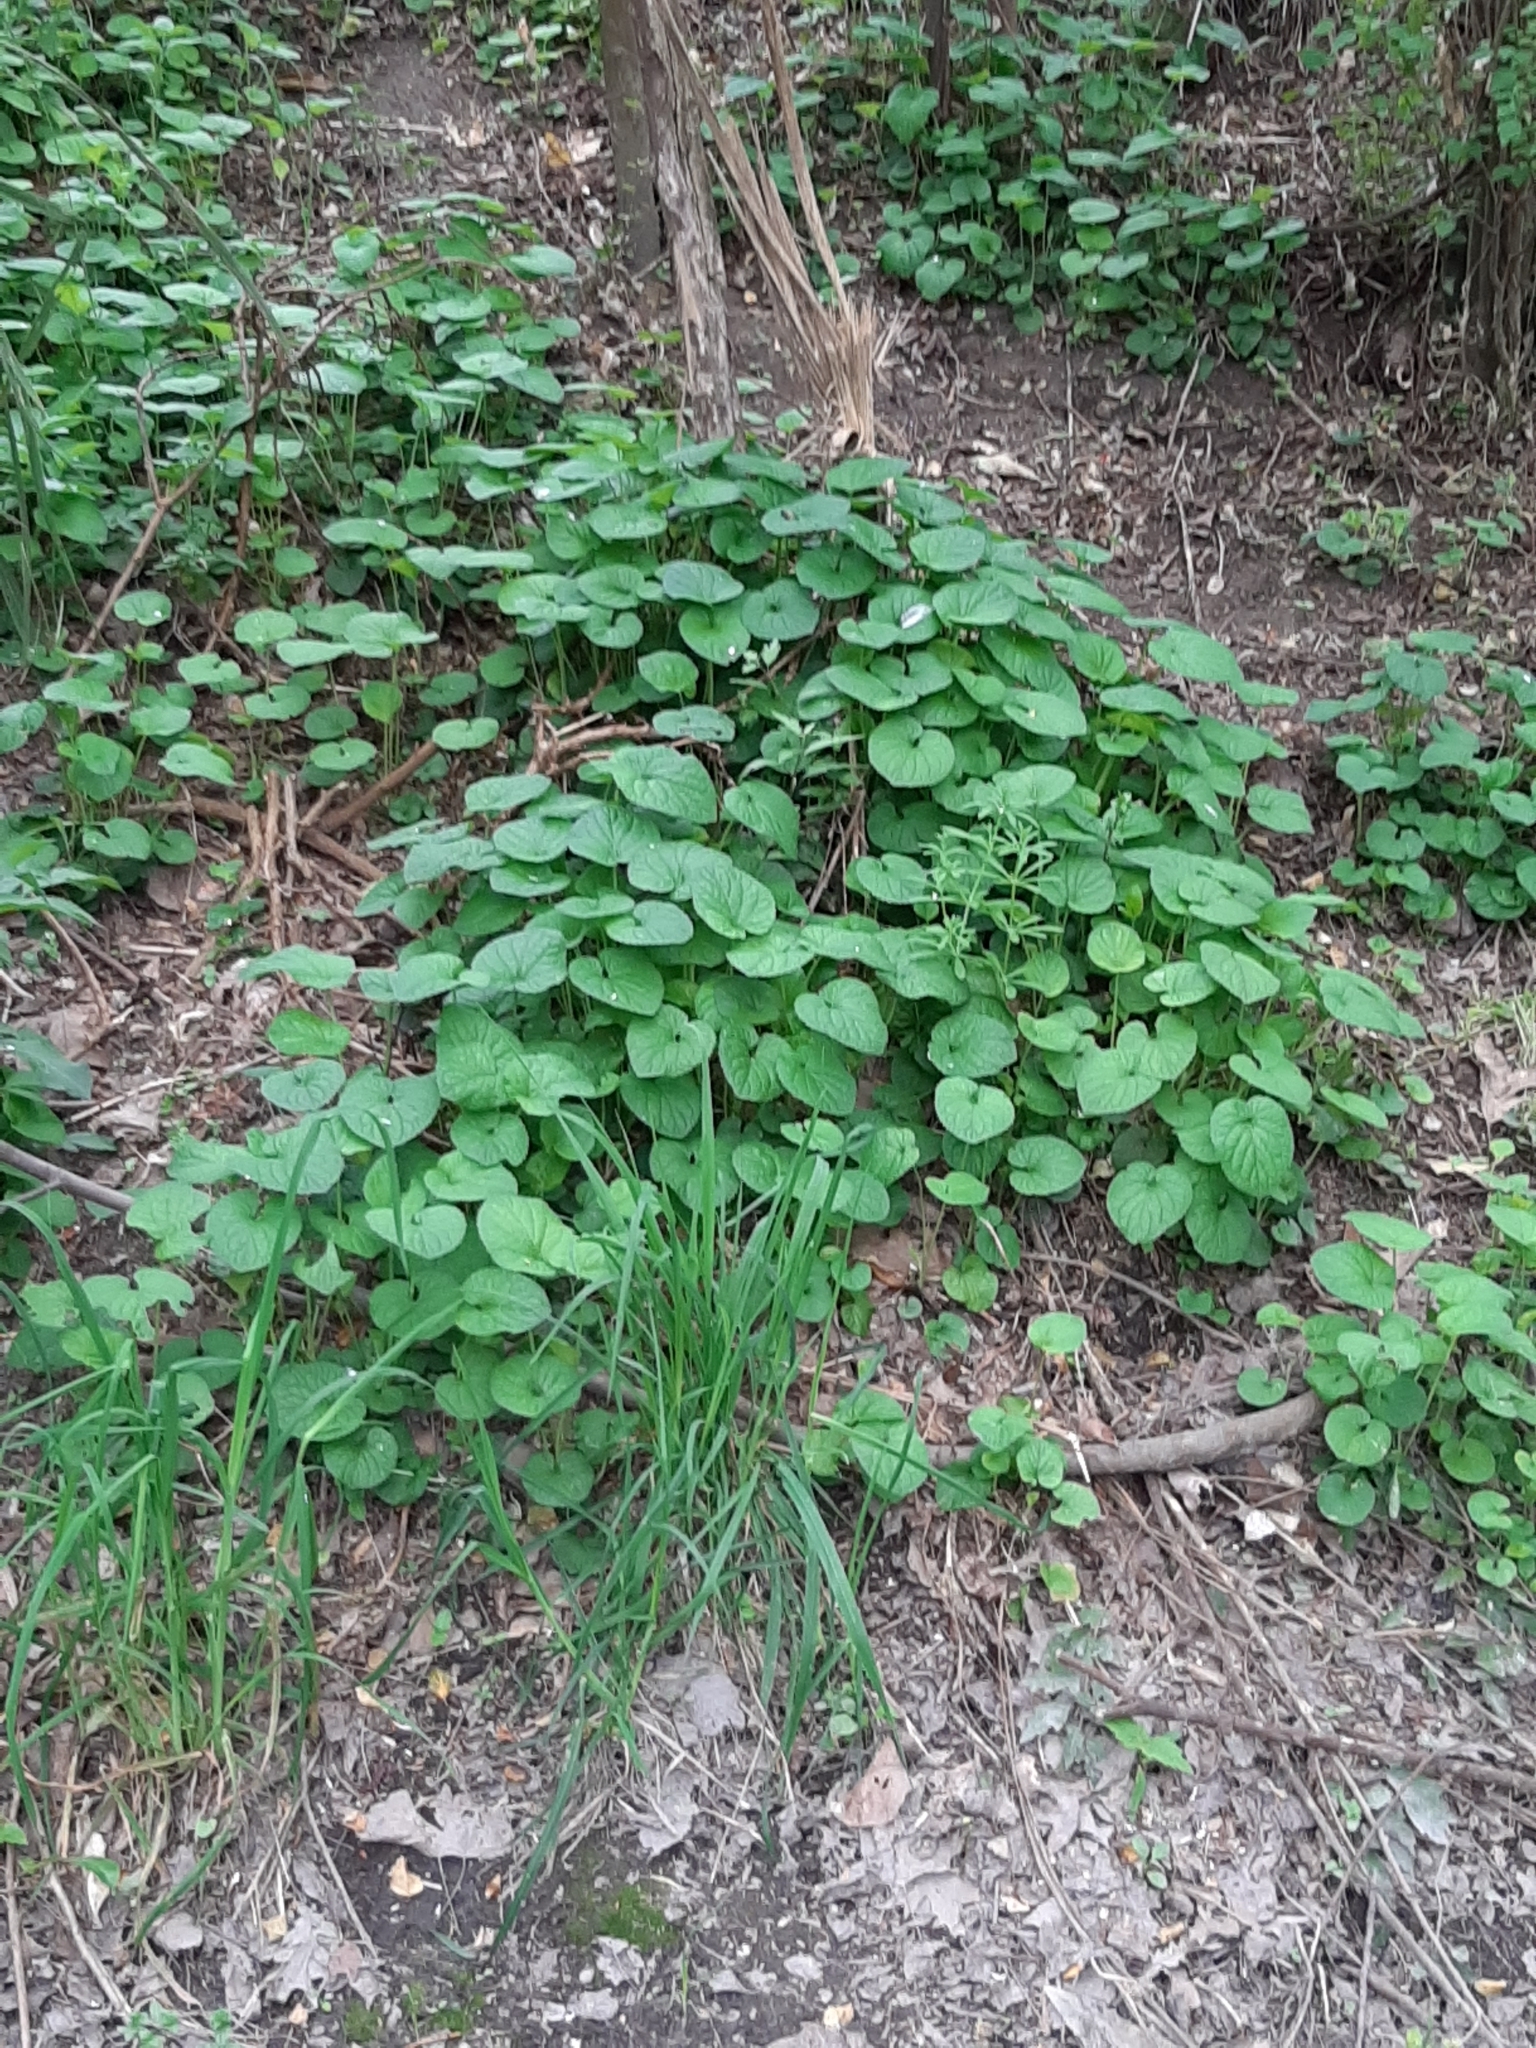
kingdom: Plantae
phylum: Tracheophyta
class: Magnoliopsida
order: Malpighiales
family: Violaceae
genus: Viola
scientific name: Viola odorata
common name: Sweet violet
